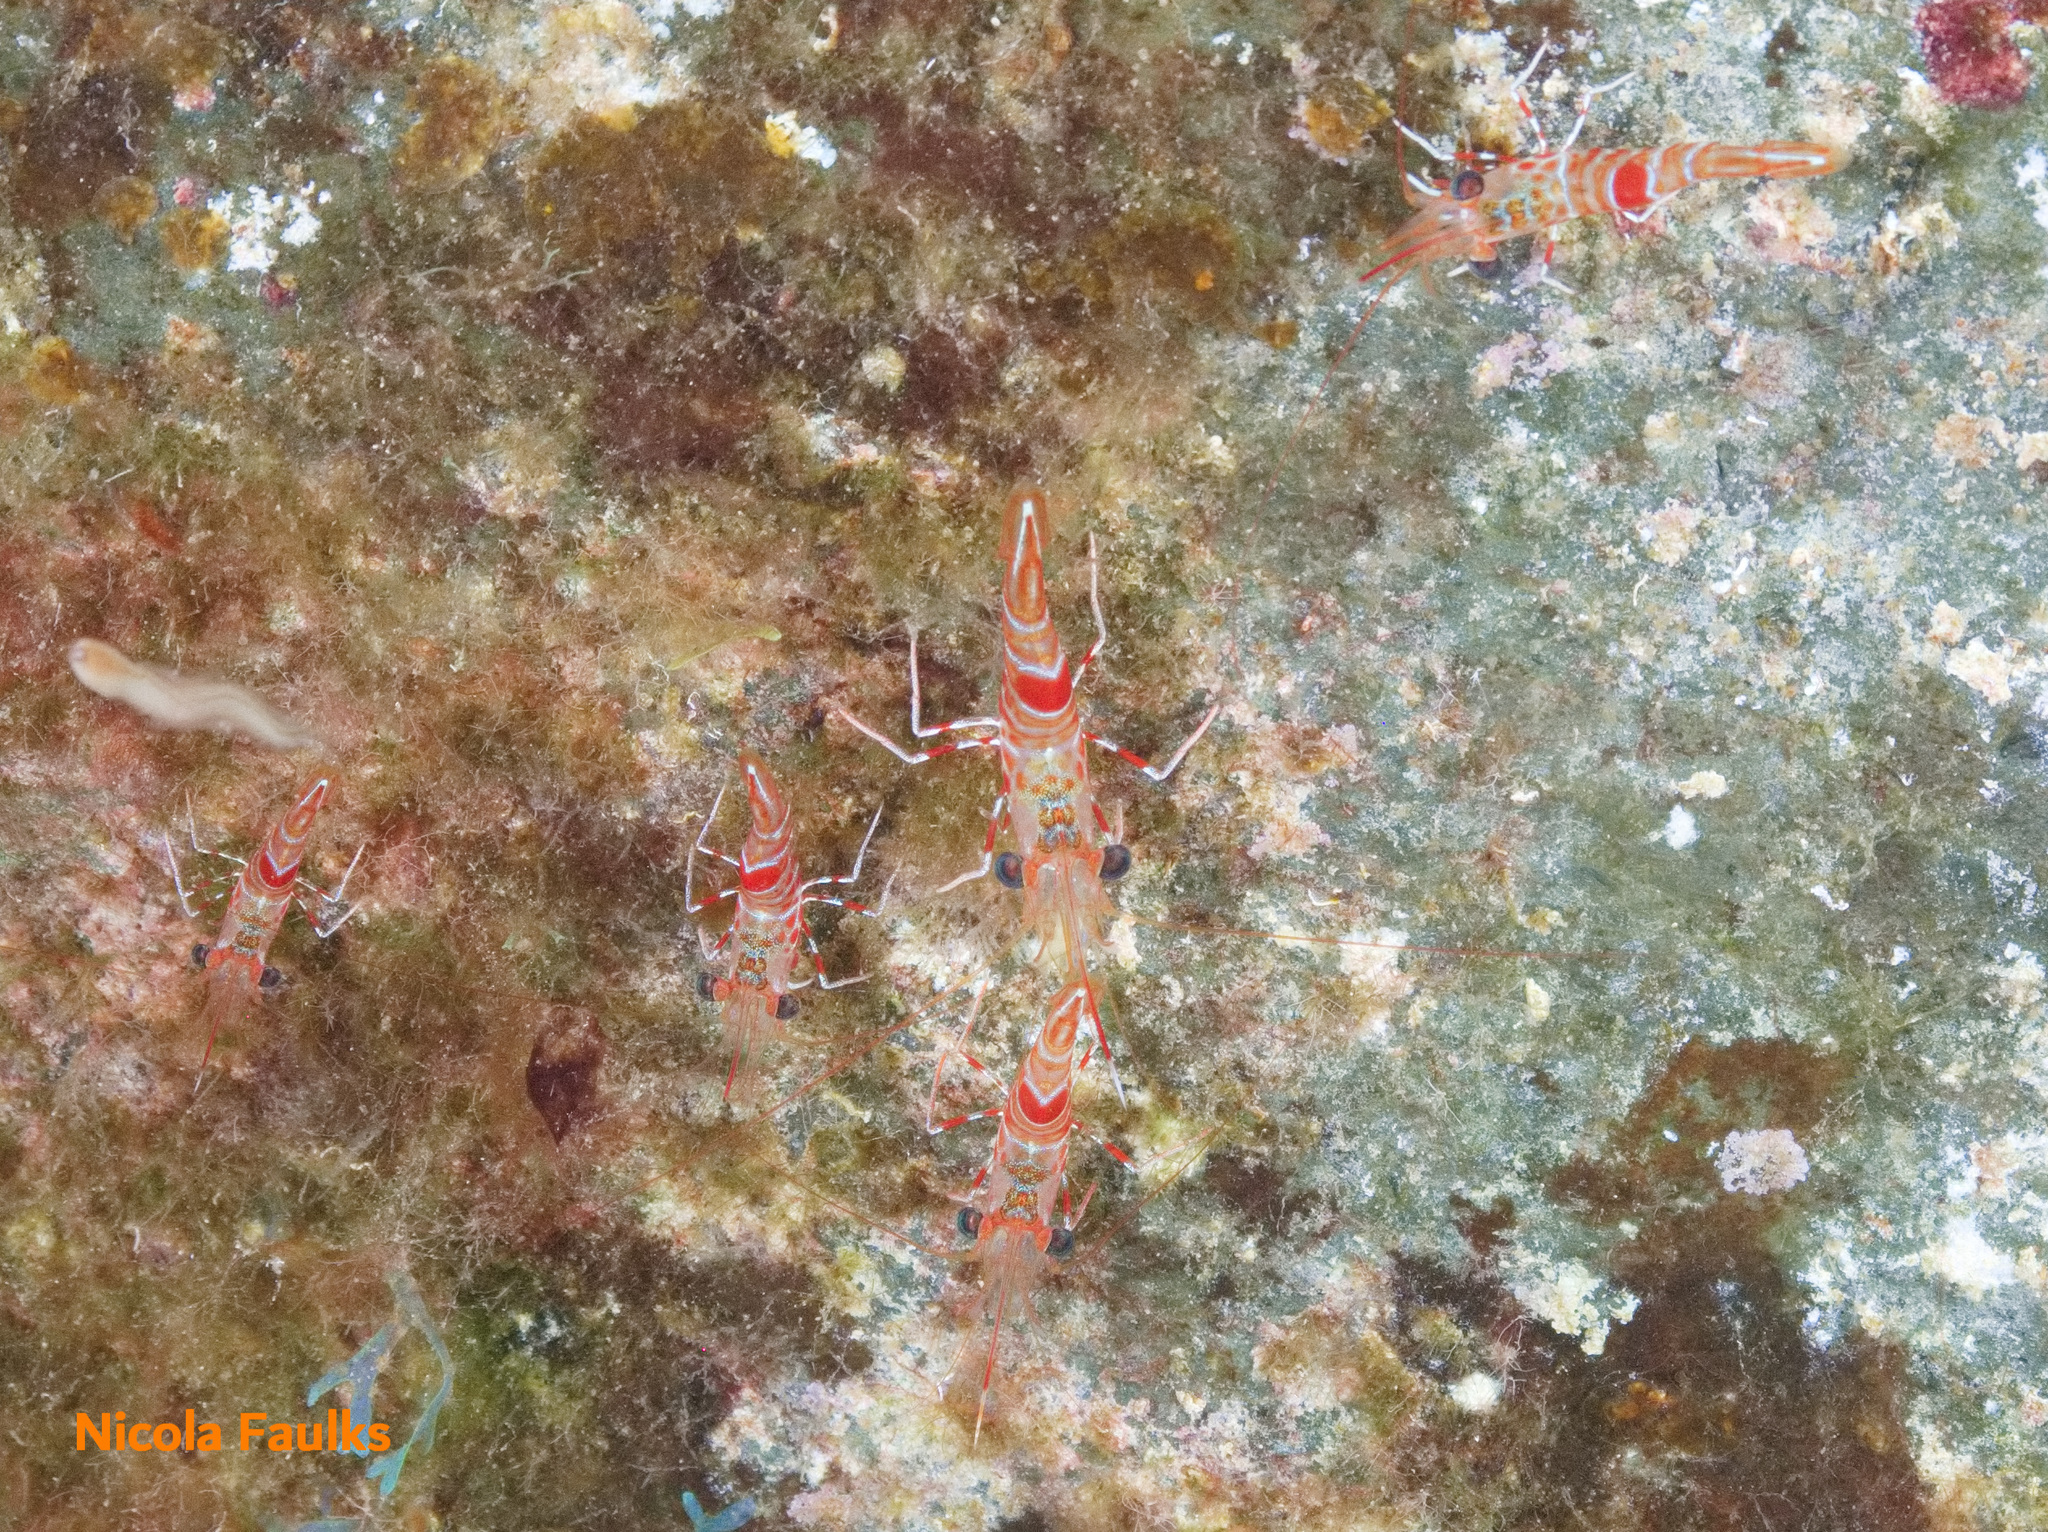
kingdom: Animalia
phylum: Arthropoda
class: Malacostraca
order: Decapoda
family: Rhynchocinetidae
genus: Cinetorhynchus
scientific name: Cinetorhynchus rigens
